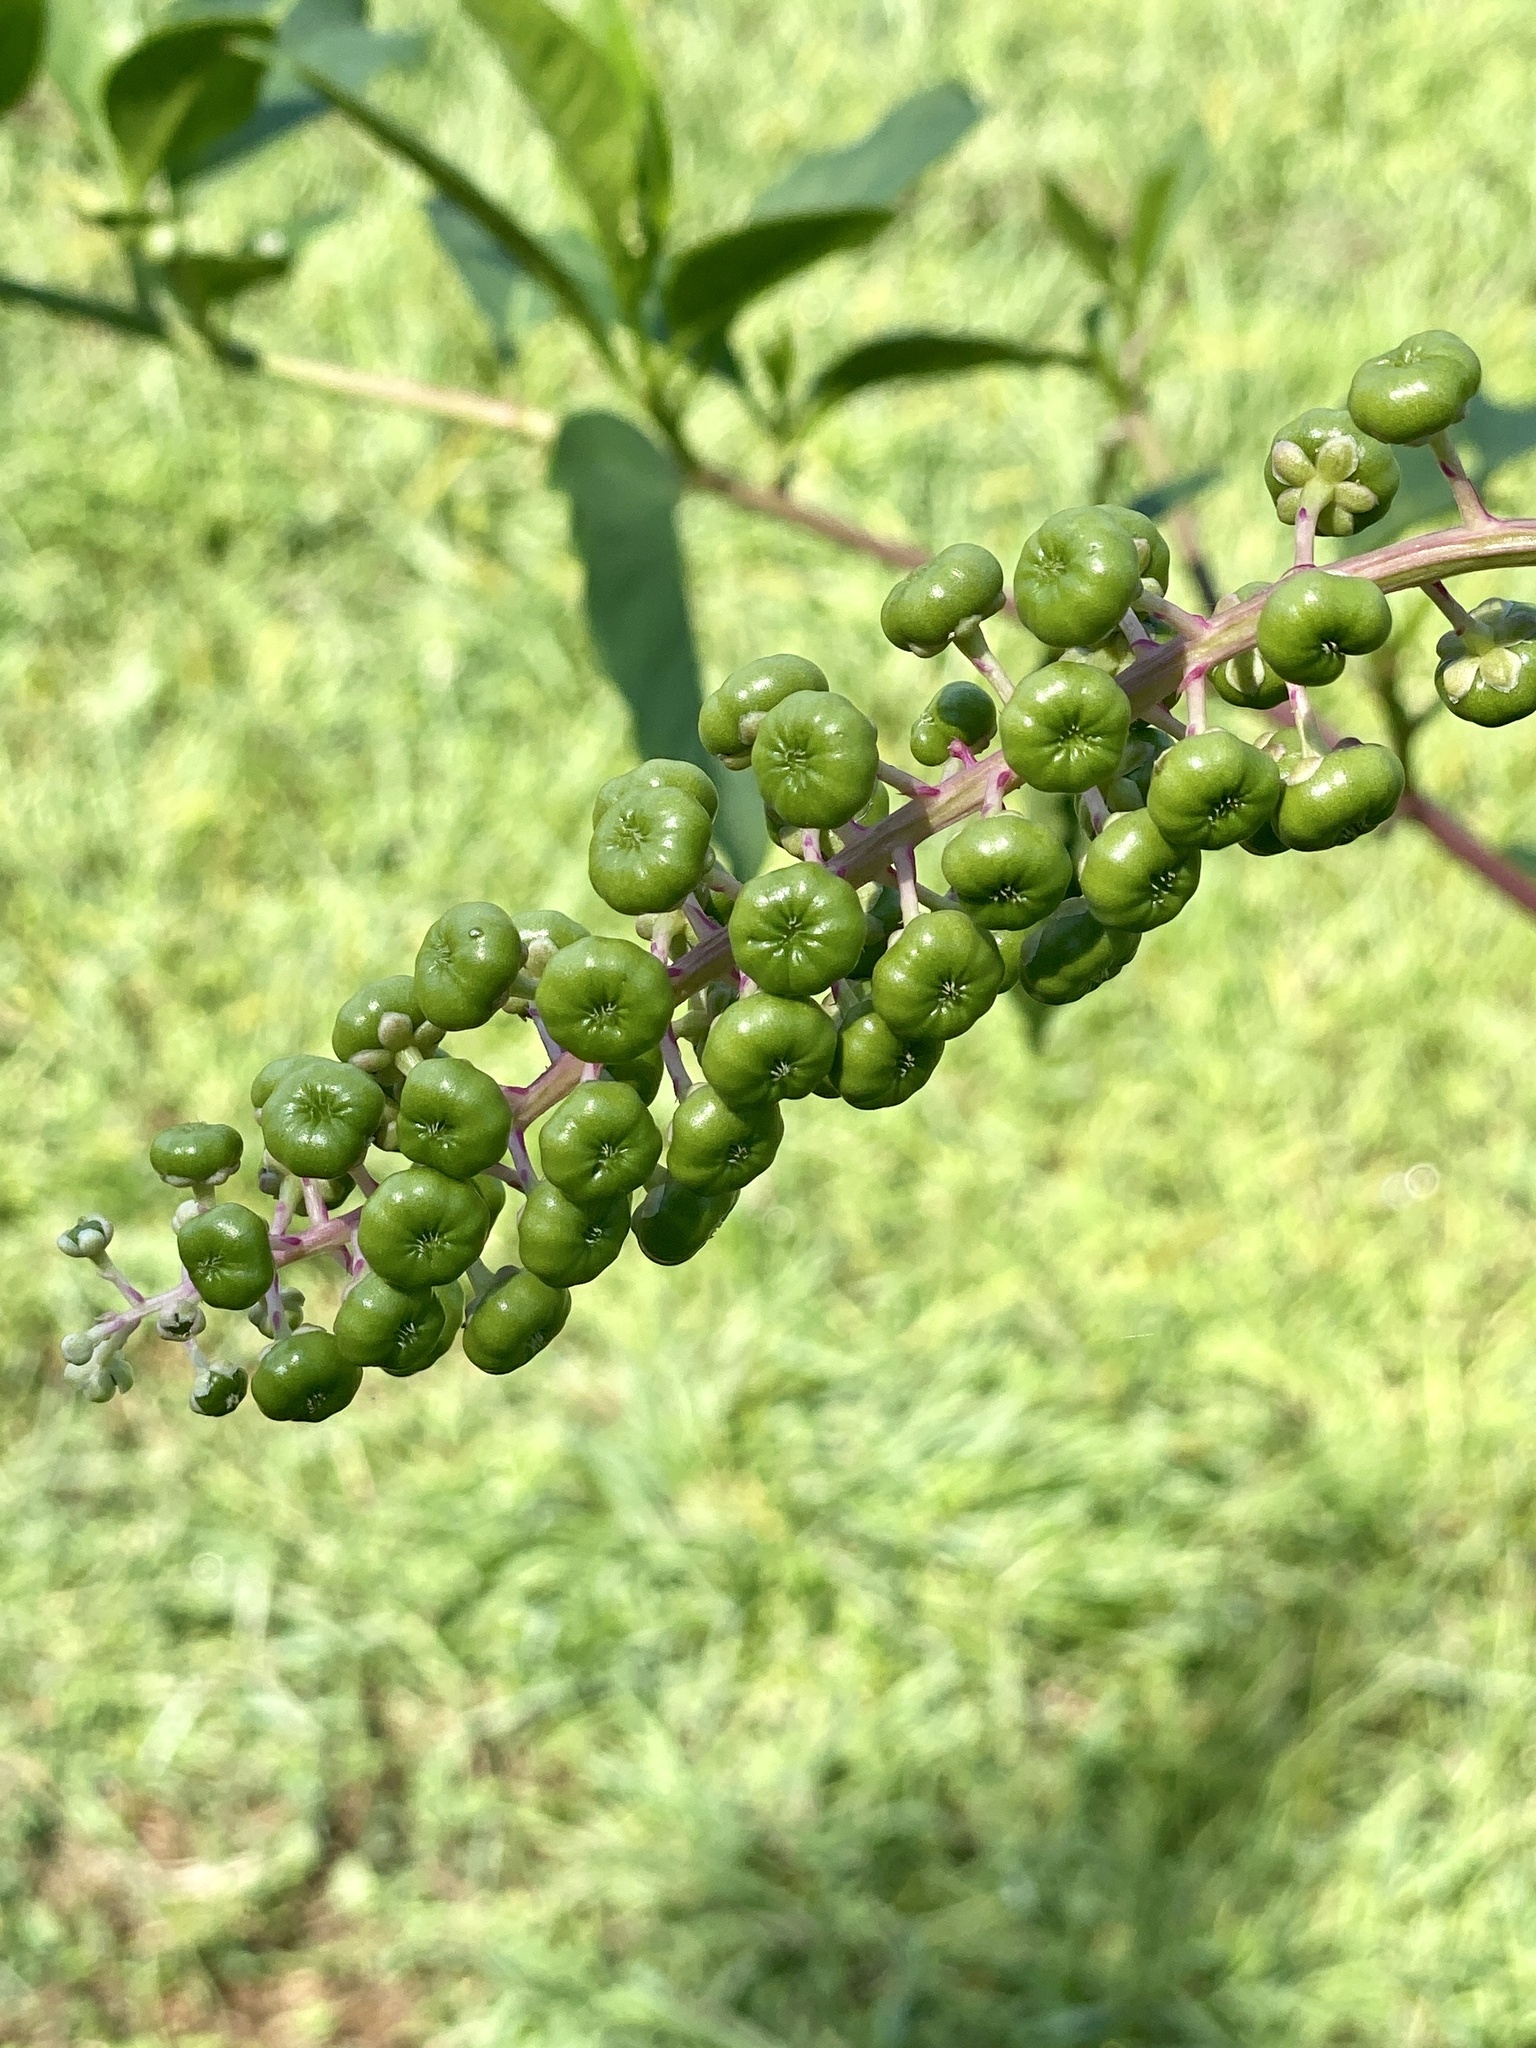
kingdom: Plantae
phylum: Tracheophyta
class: Magnoliopsida
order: Caryophyllales
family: Phytolaccaceae
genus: Phytolacca
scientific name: Phytolacca americana
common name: American pokeweed
